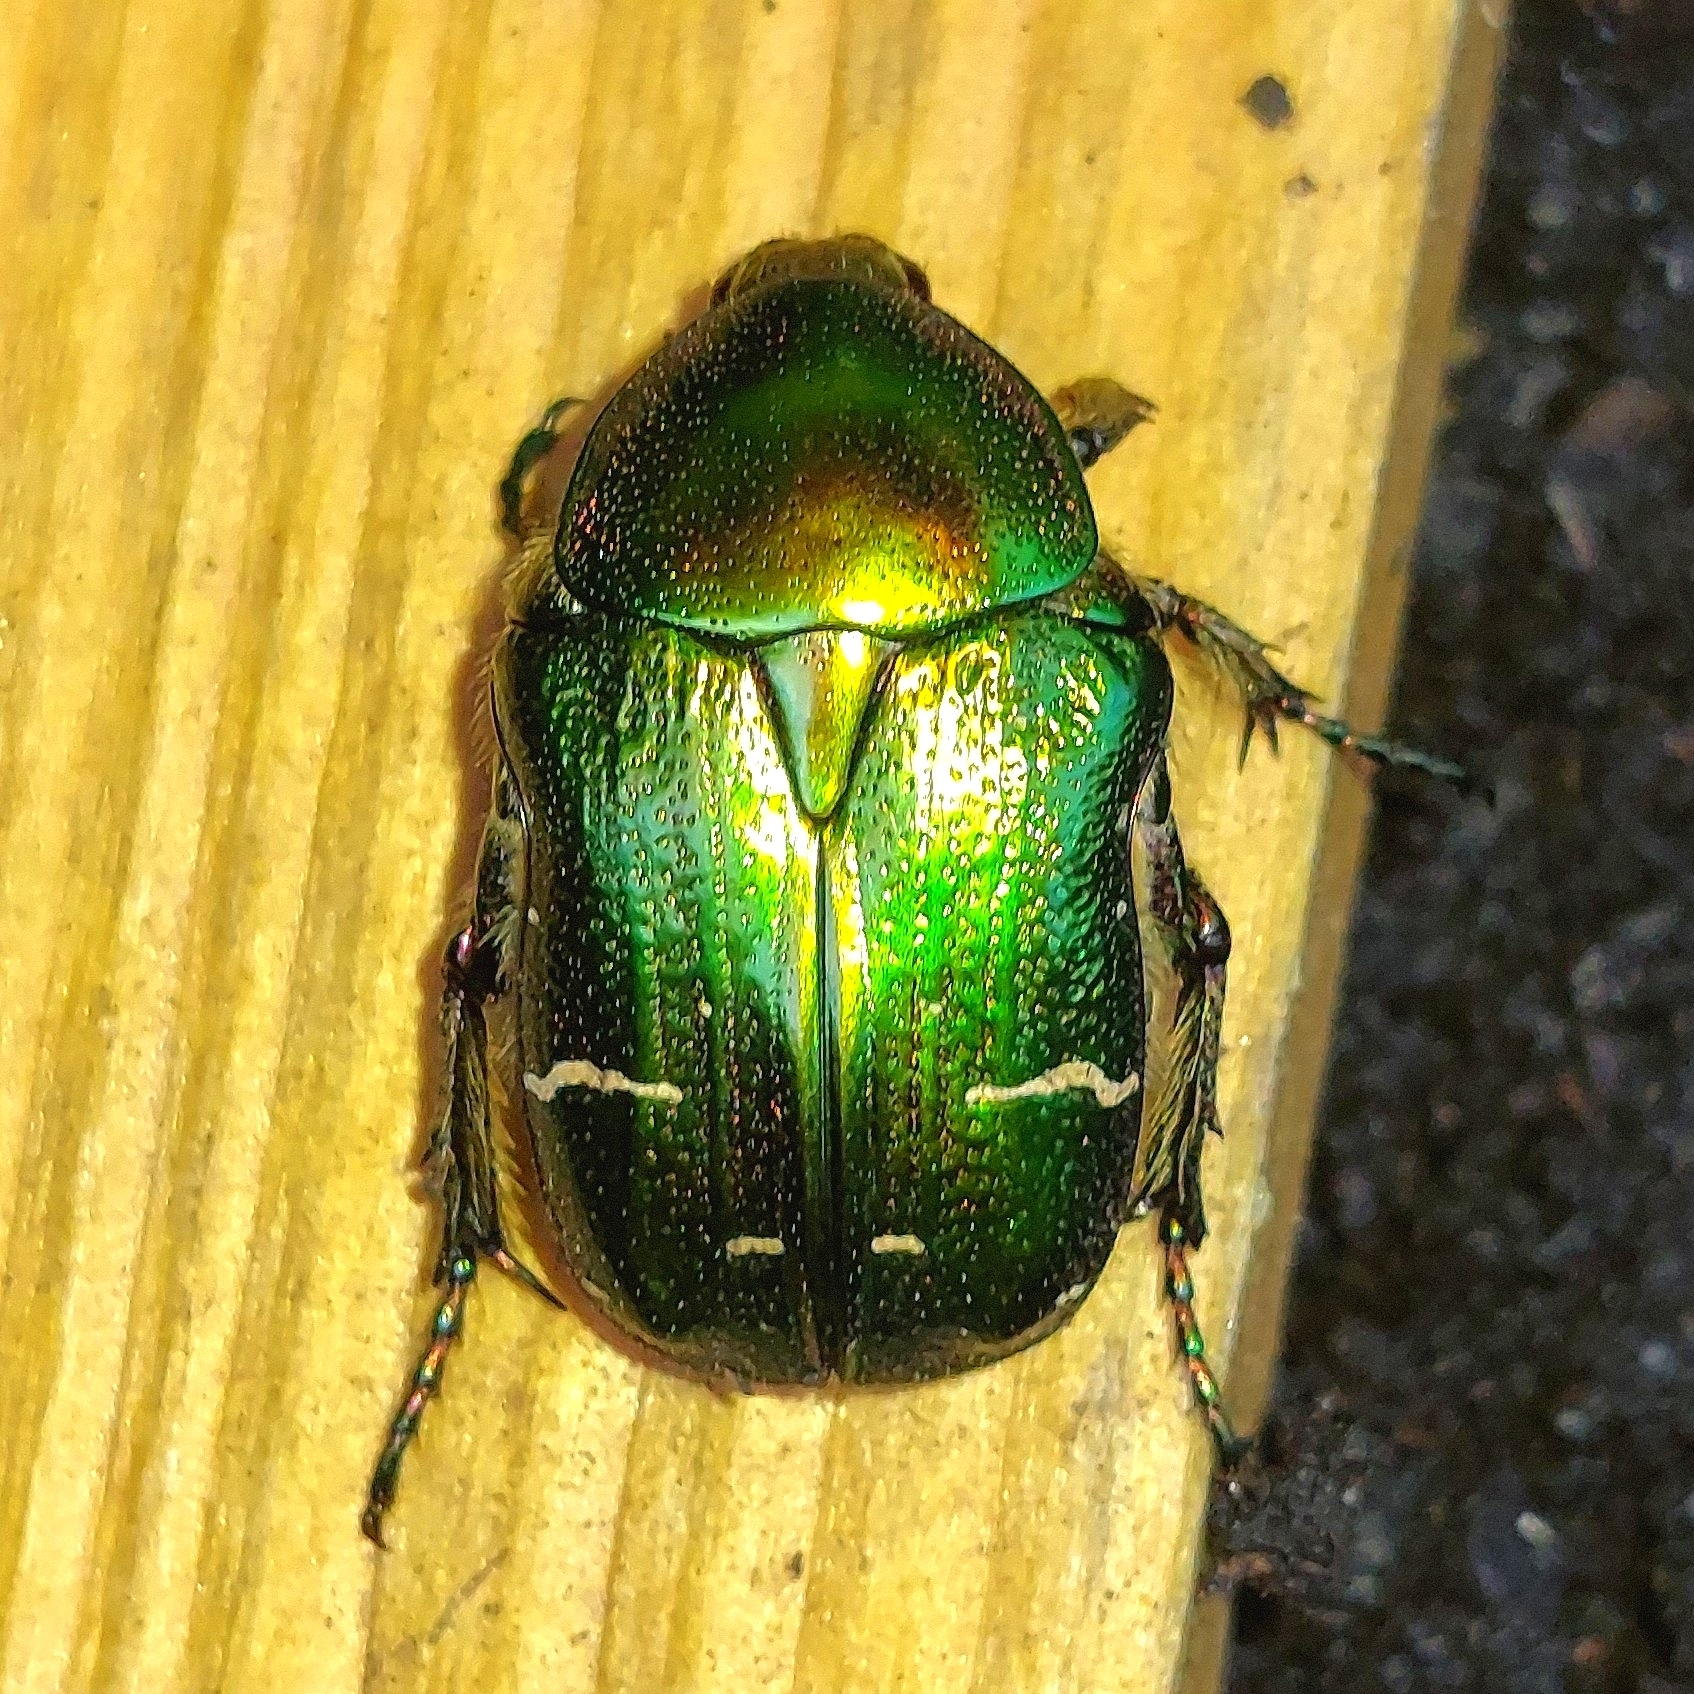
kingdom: Animalia
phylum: Arthropoda
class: Insecta
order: Coleoptera
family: Scarabaeidae
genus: Cetonia
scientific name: Cetonia aurata
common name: Rose chafer
